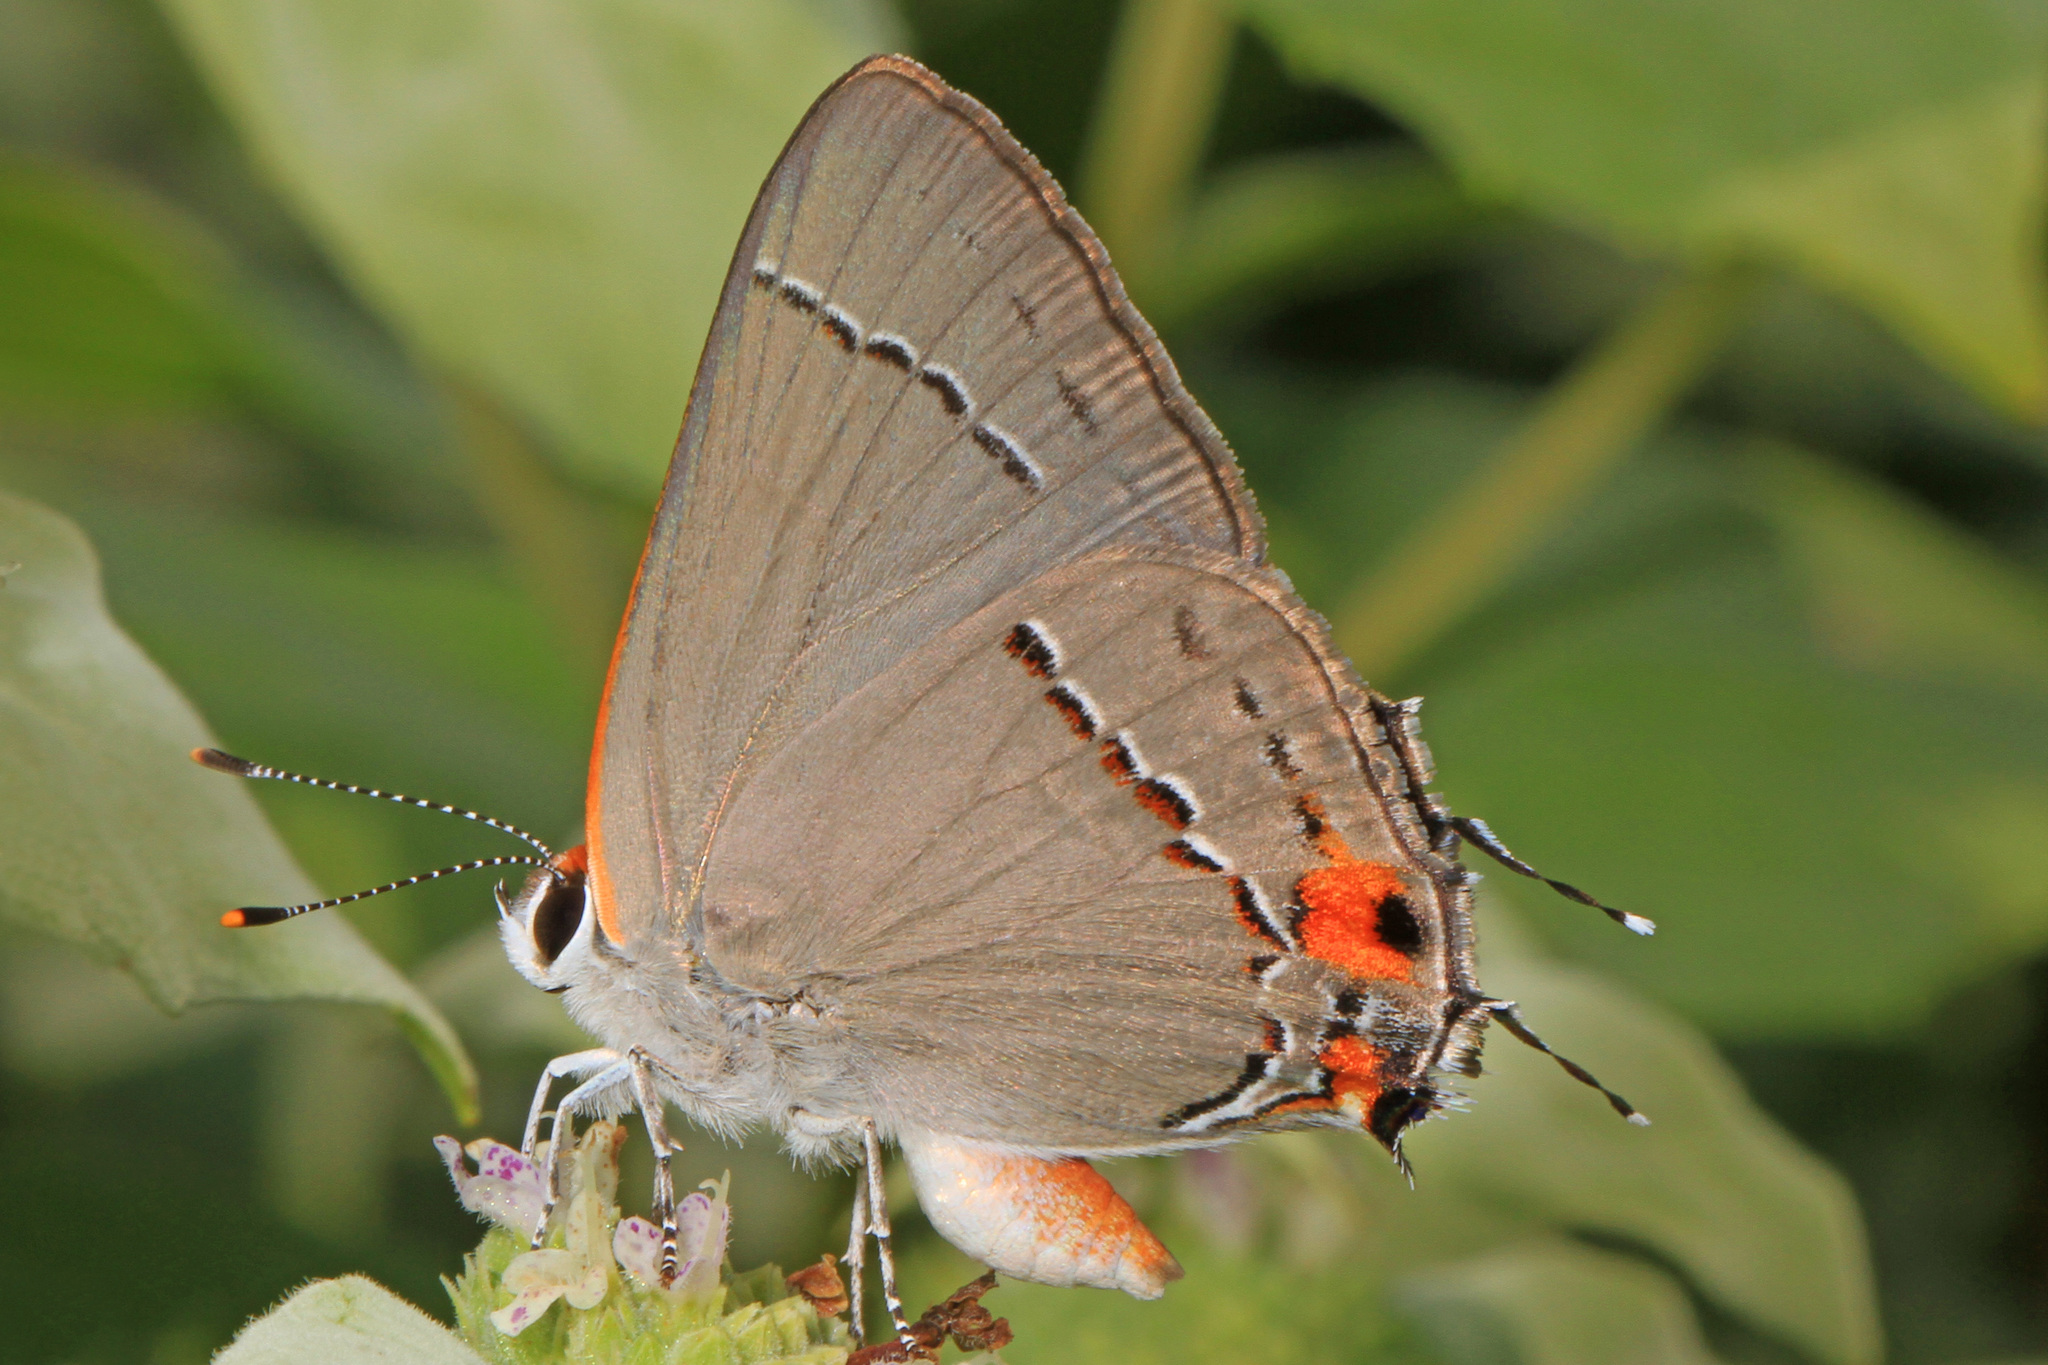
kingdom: Animalia
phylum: Arthropoda
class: Insecta
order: Lepidoptera
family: Lycaenidae
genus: Strymon
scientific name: Strymon melinus
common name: Gray hairstreak
